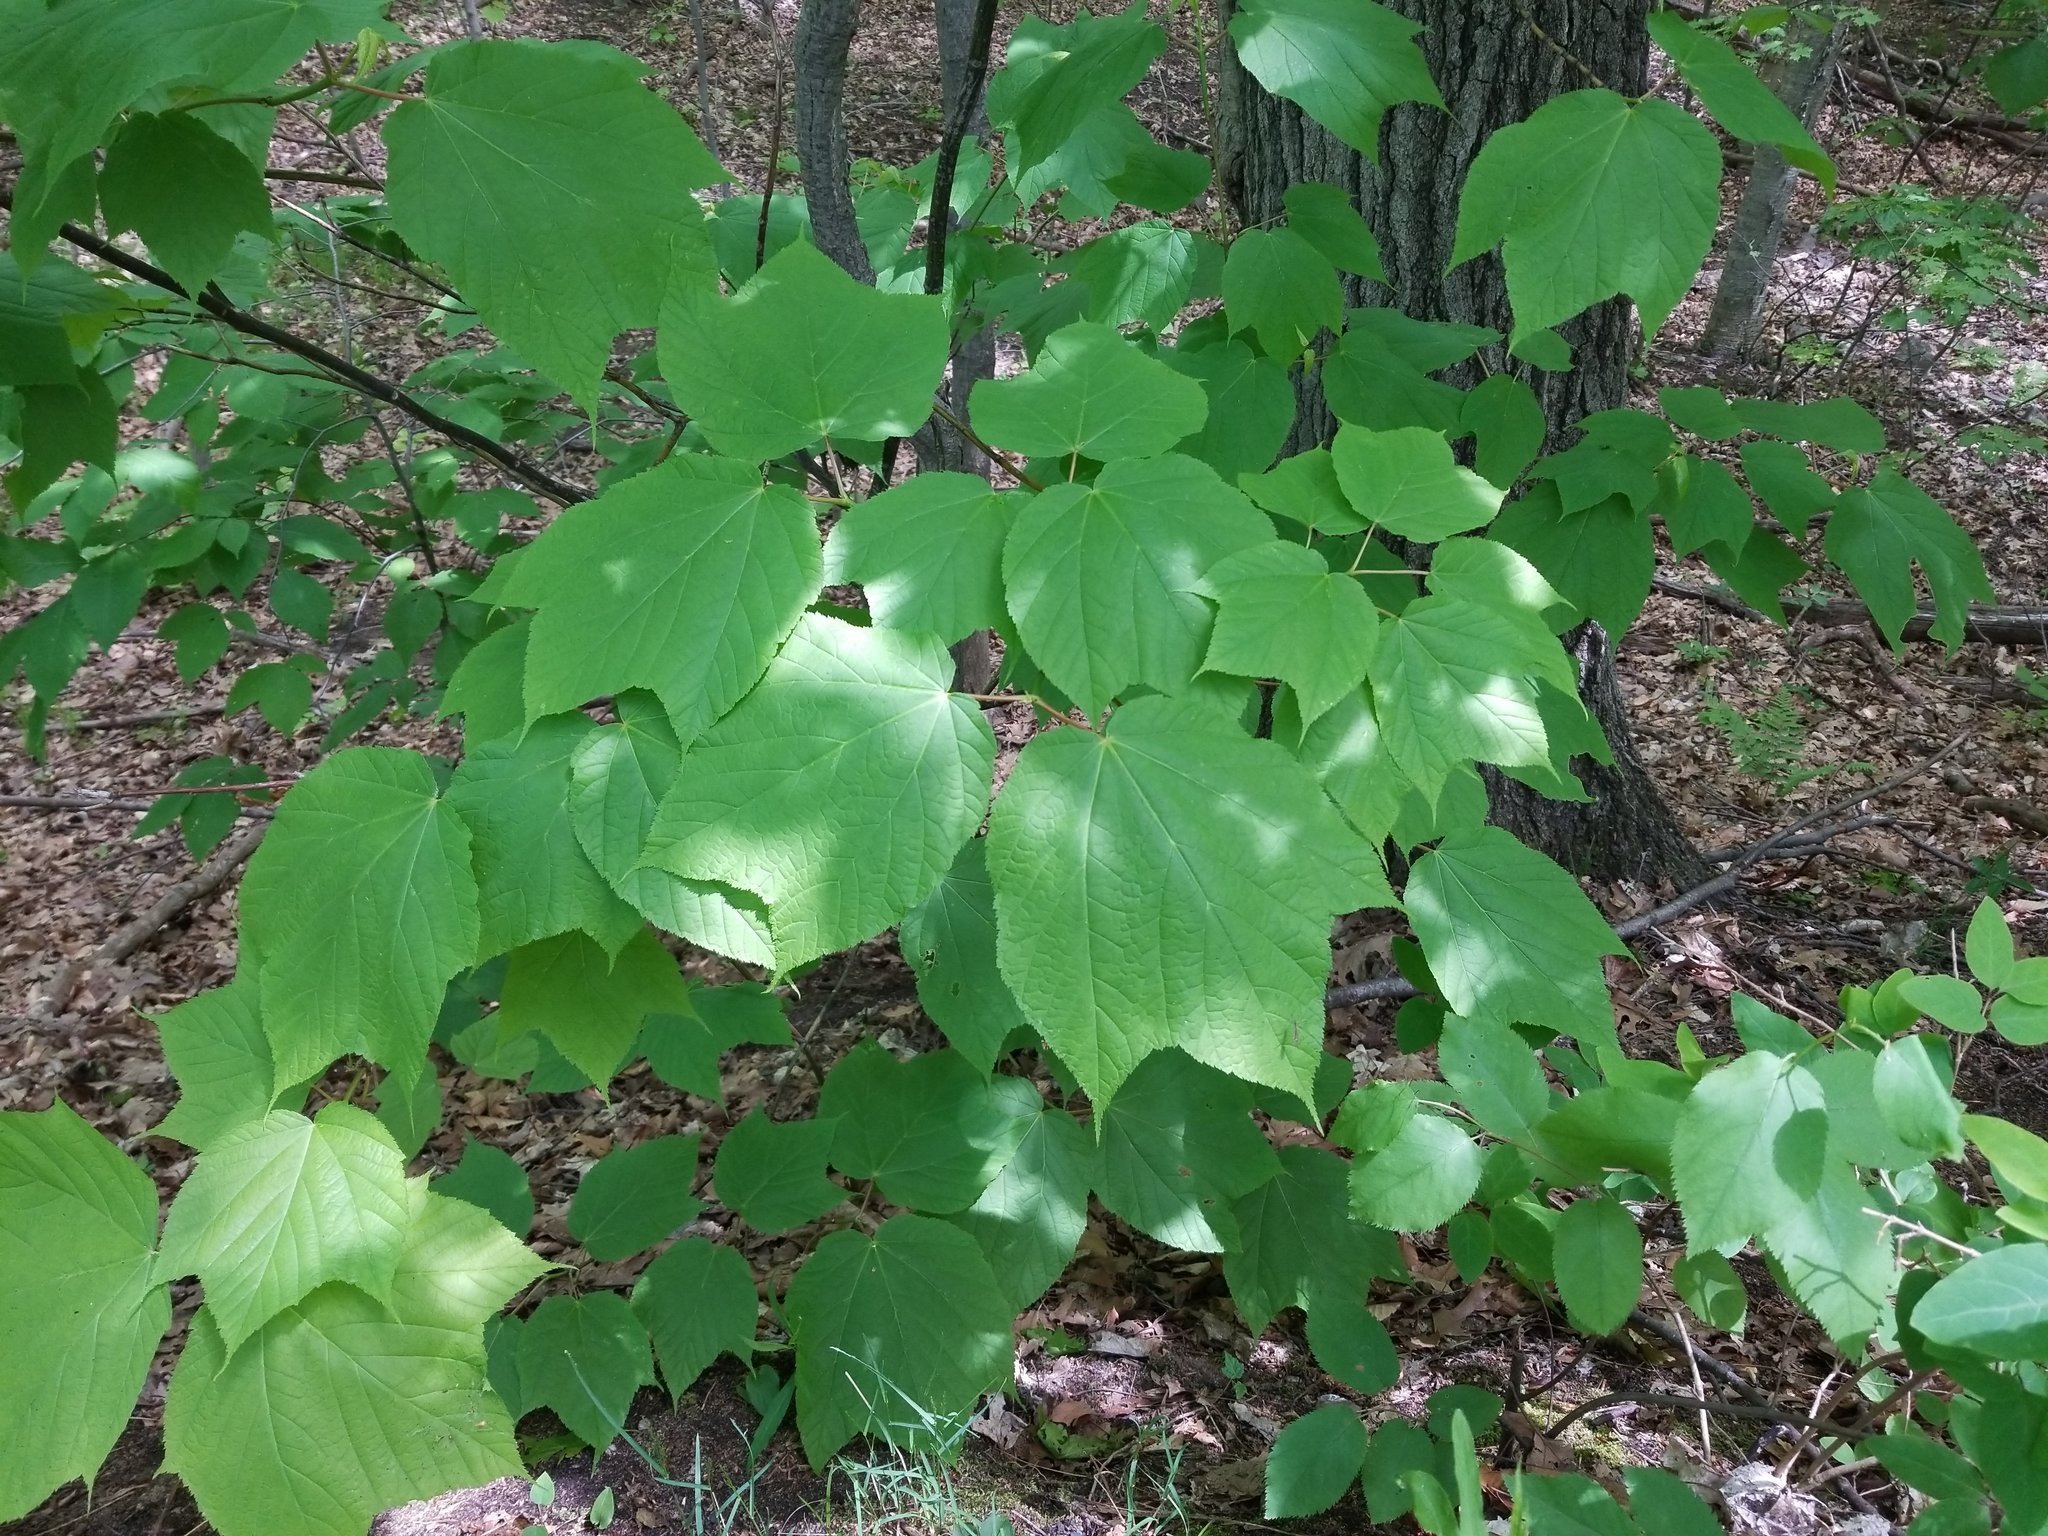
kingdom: Plantae
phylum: Tracheophyta
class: Magnoliopsida
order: Sapindales
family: Sapindaceae
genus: Acer
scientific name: Acer pensylvanicum
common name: Moosewood
